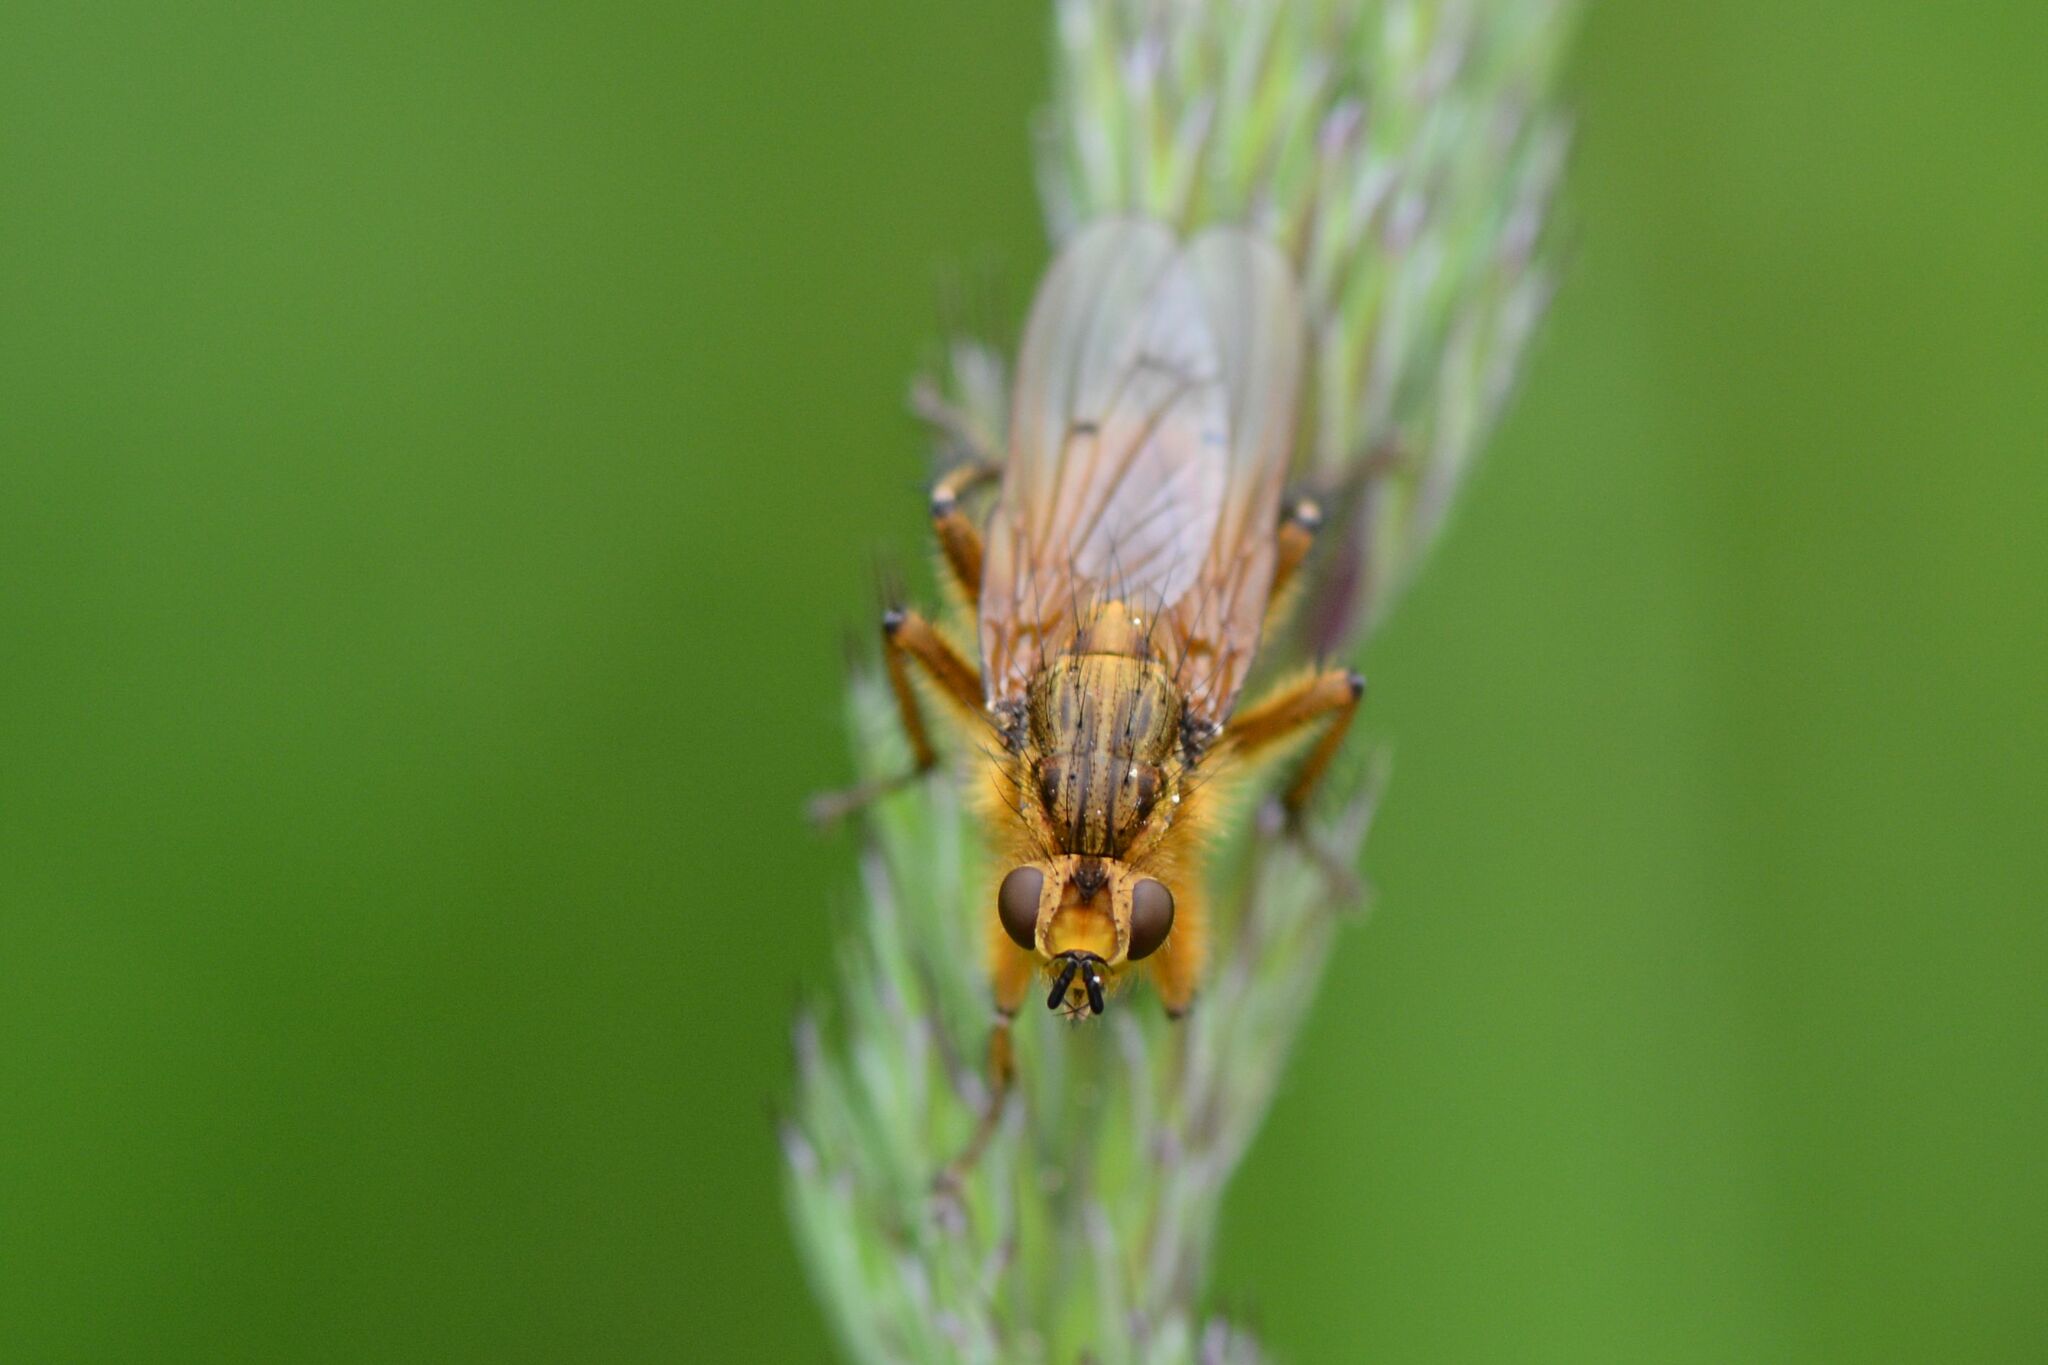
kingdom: Animalia
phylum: Arthropoda
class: Insecta
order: Diptera
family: Scathophagidae
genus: Scathophaga
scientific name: Scathophaga stercoraria
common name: Yellow dung fly
